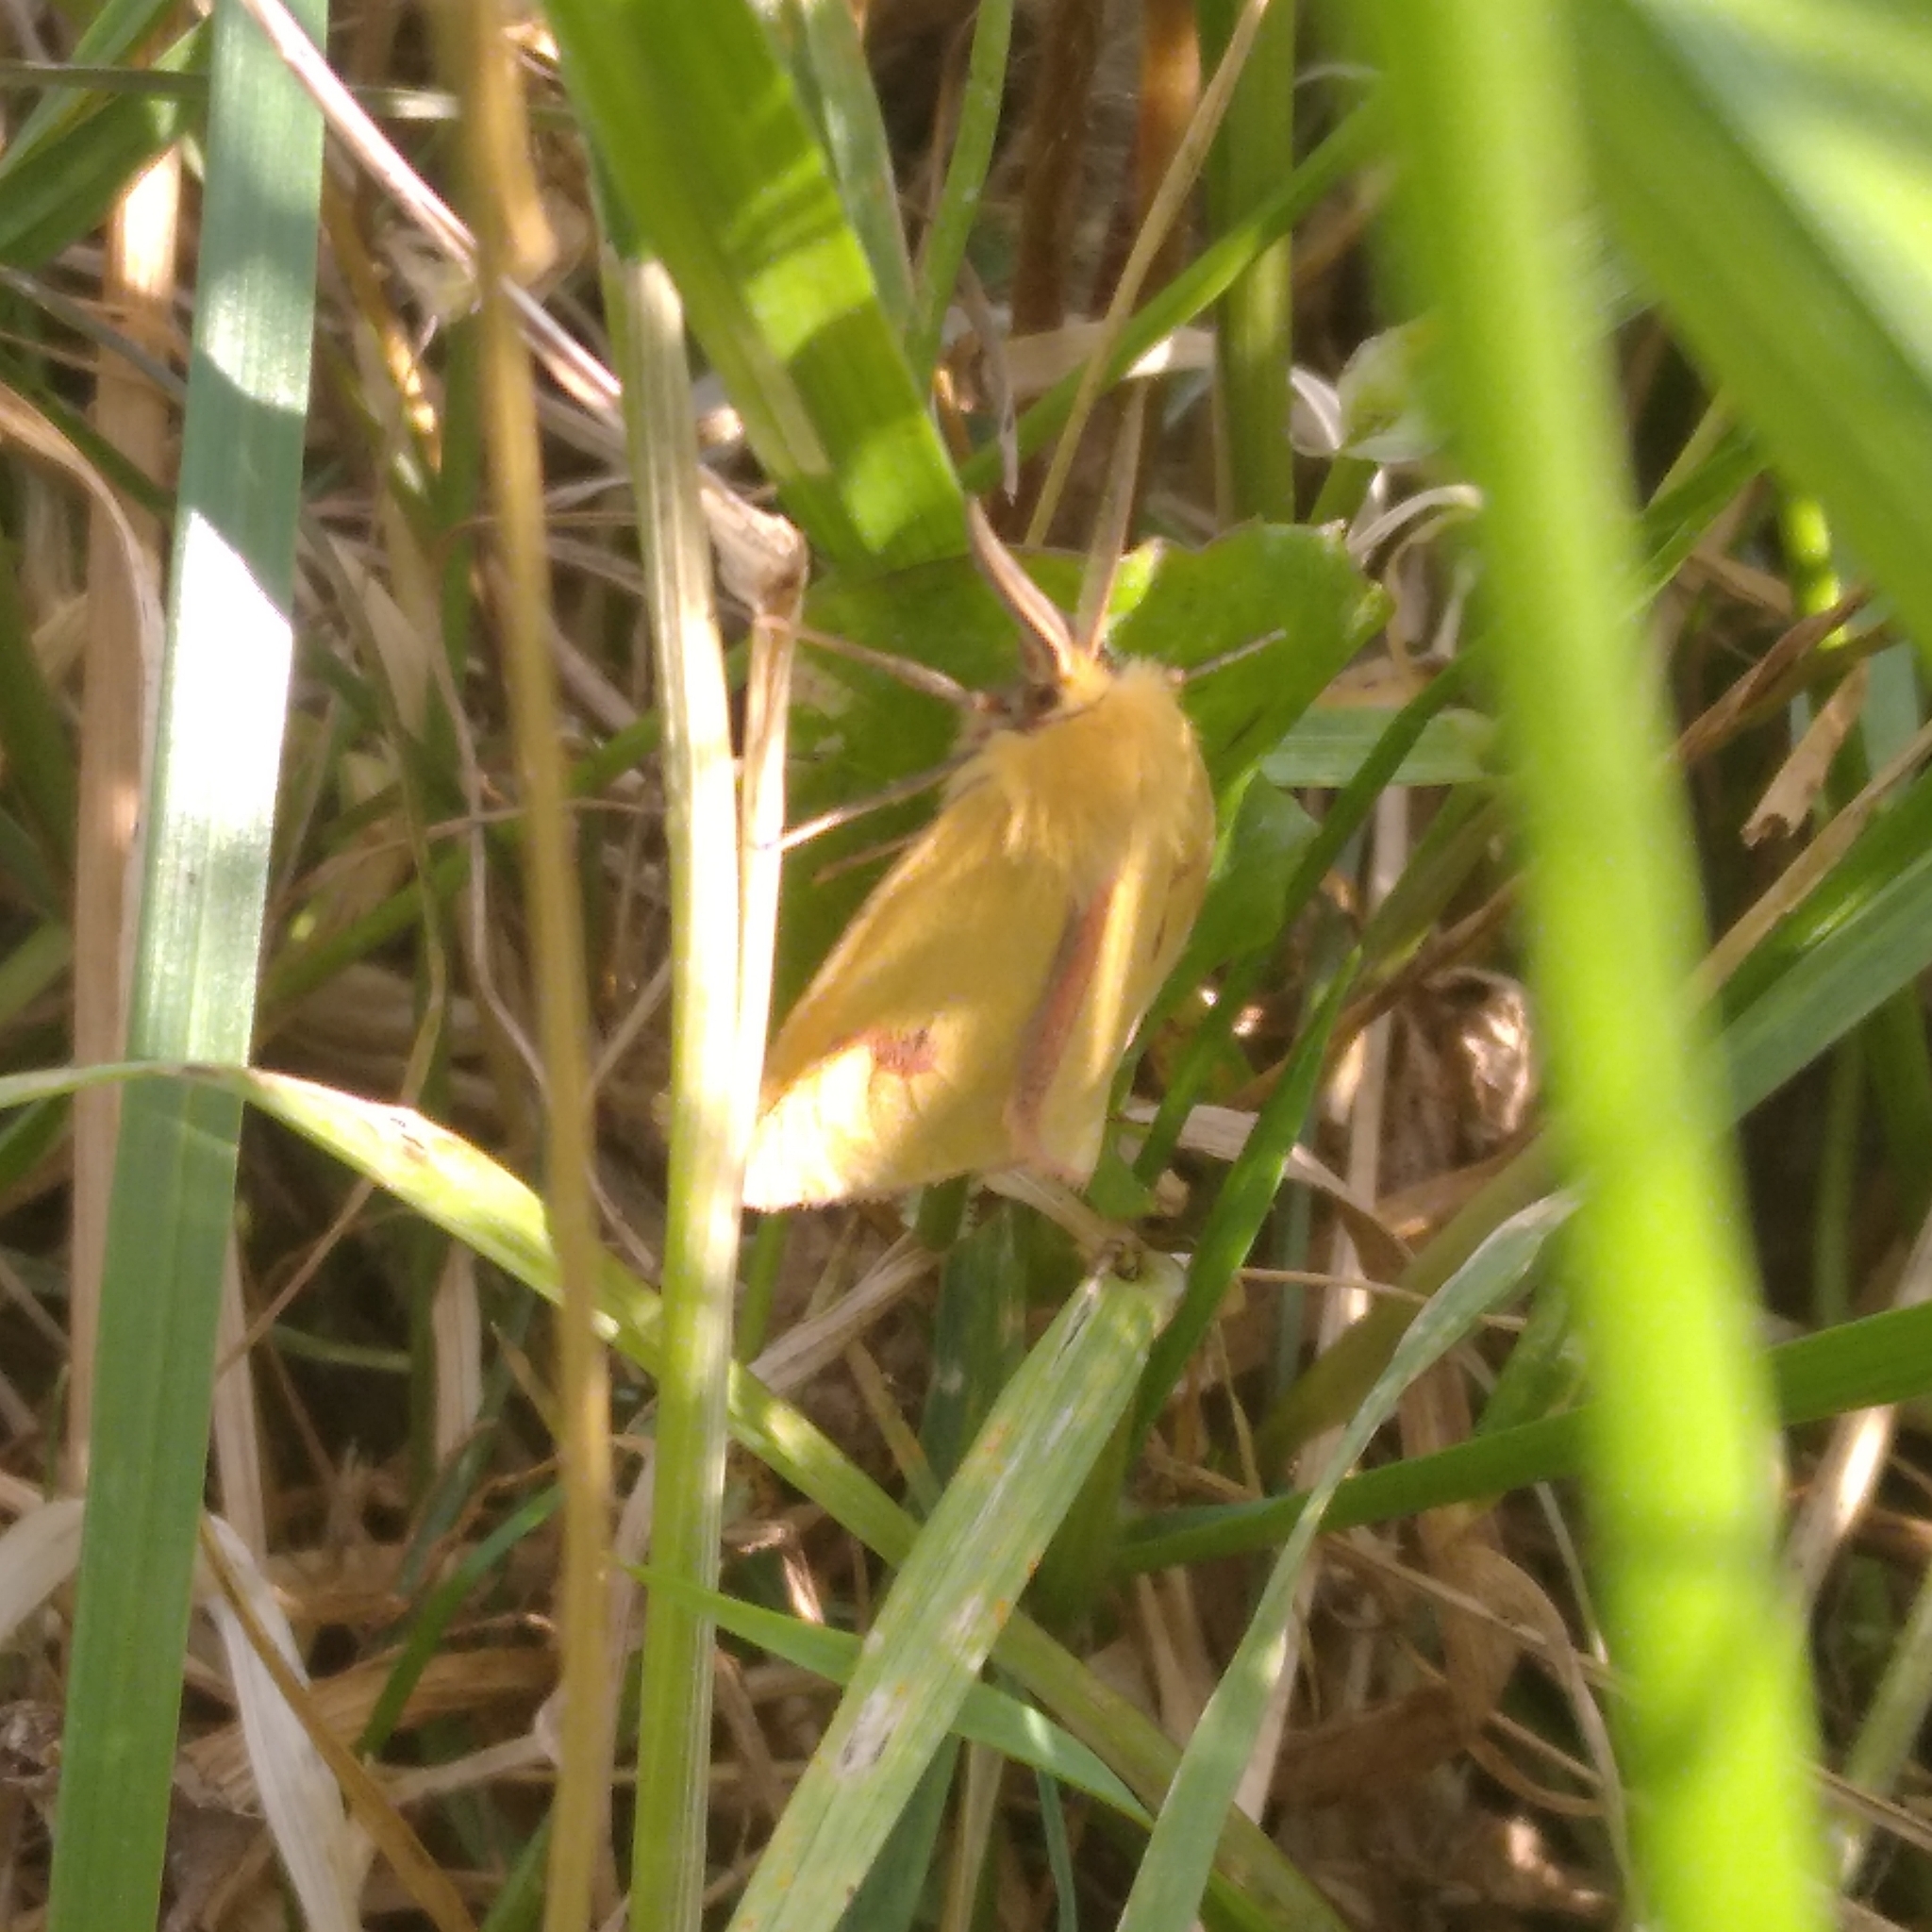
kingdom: Animalia
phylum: Arthropoda
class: Insecta
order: Lepidoptera
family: Erebidae
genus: Diacrisia
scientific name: Diacrisia sannio
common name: Clouded buff
